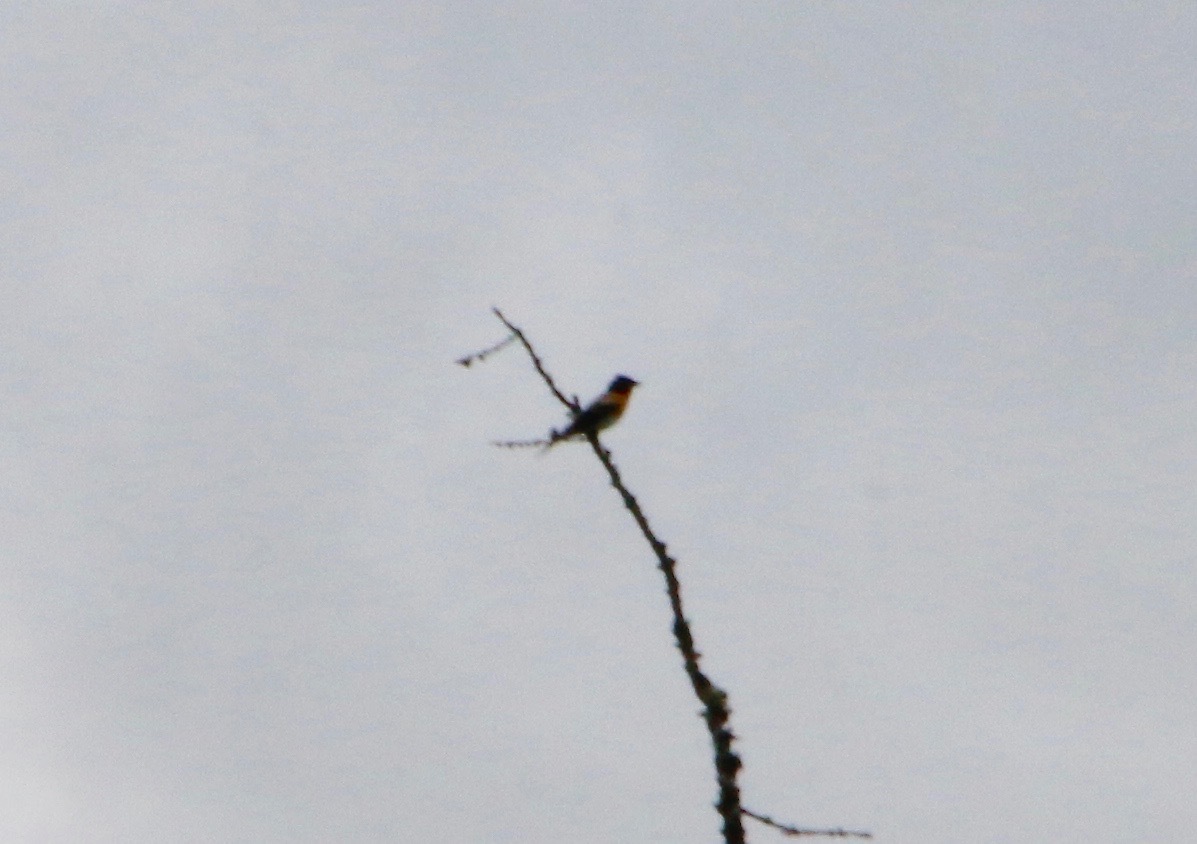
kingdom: Animalia
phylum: Chordata
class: Aves
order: Passeriformes
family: Fringillidae
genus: Fringilla
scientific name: Fringilla montifringilla
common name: Brambling
